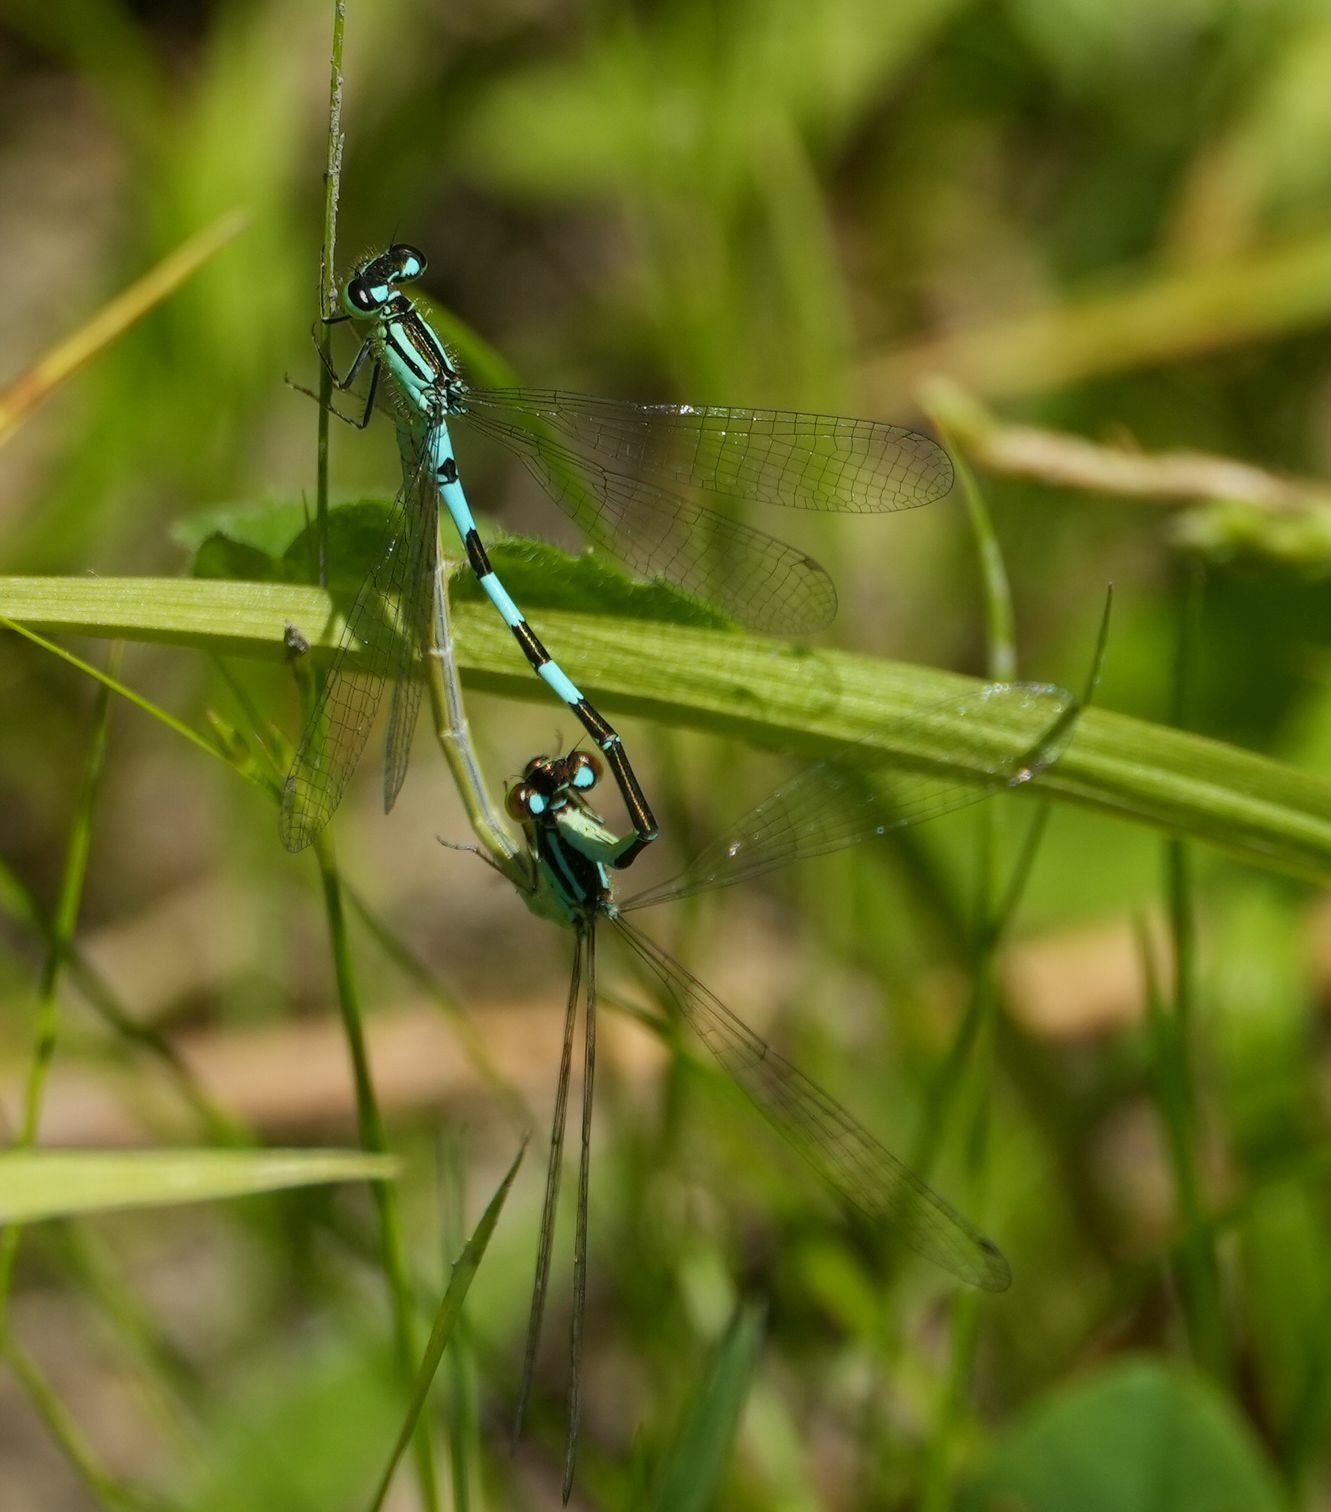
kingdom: Animalia
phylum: Arthropoda
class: Insecta
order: Odonata
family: Coenagrionidae
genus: Coenagrion
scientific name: Coenagrion resolutum
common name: Taiga bluet
